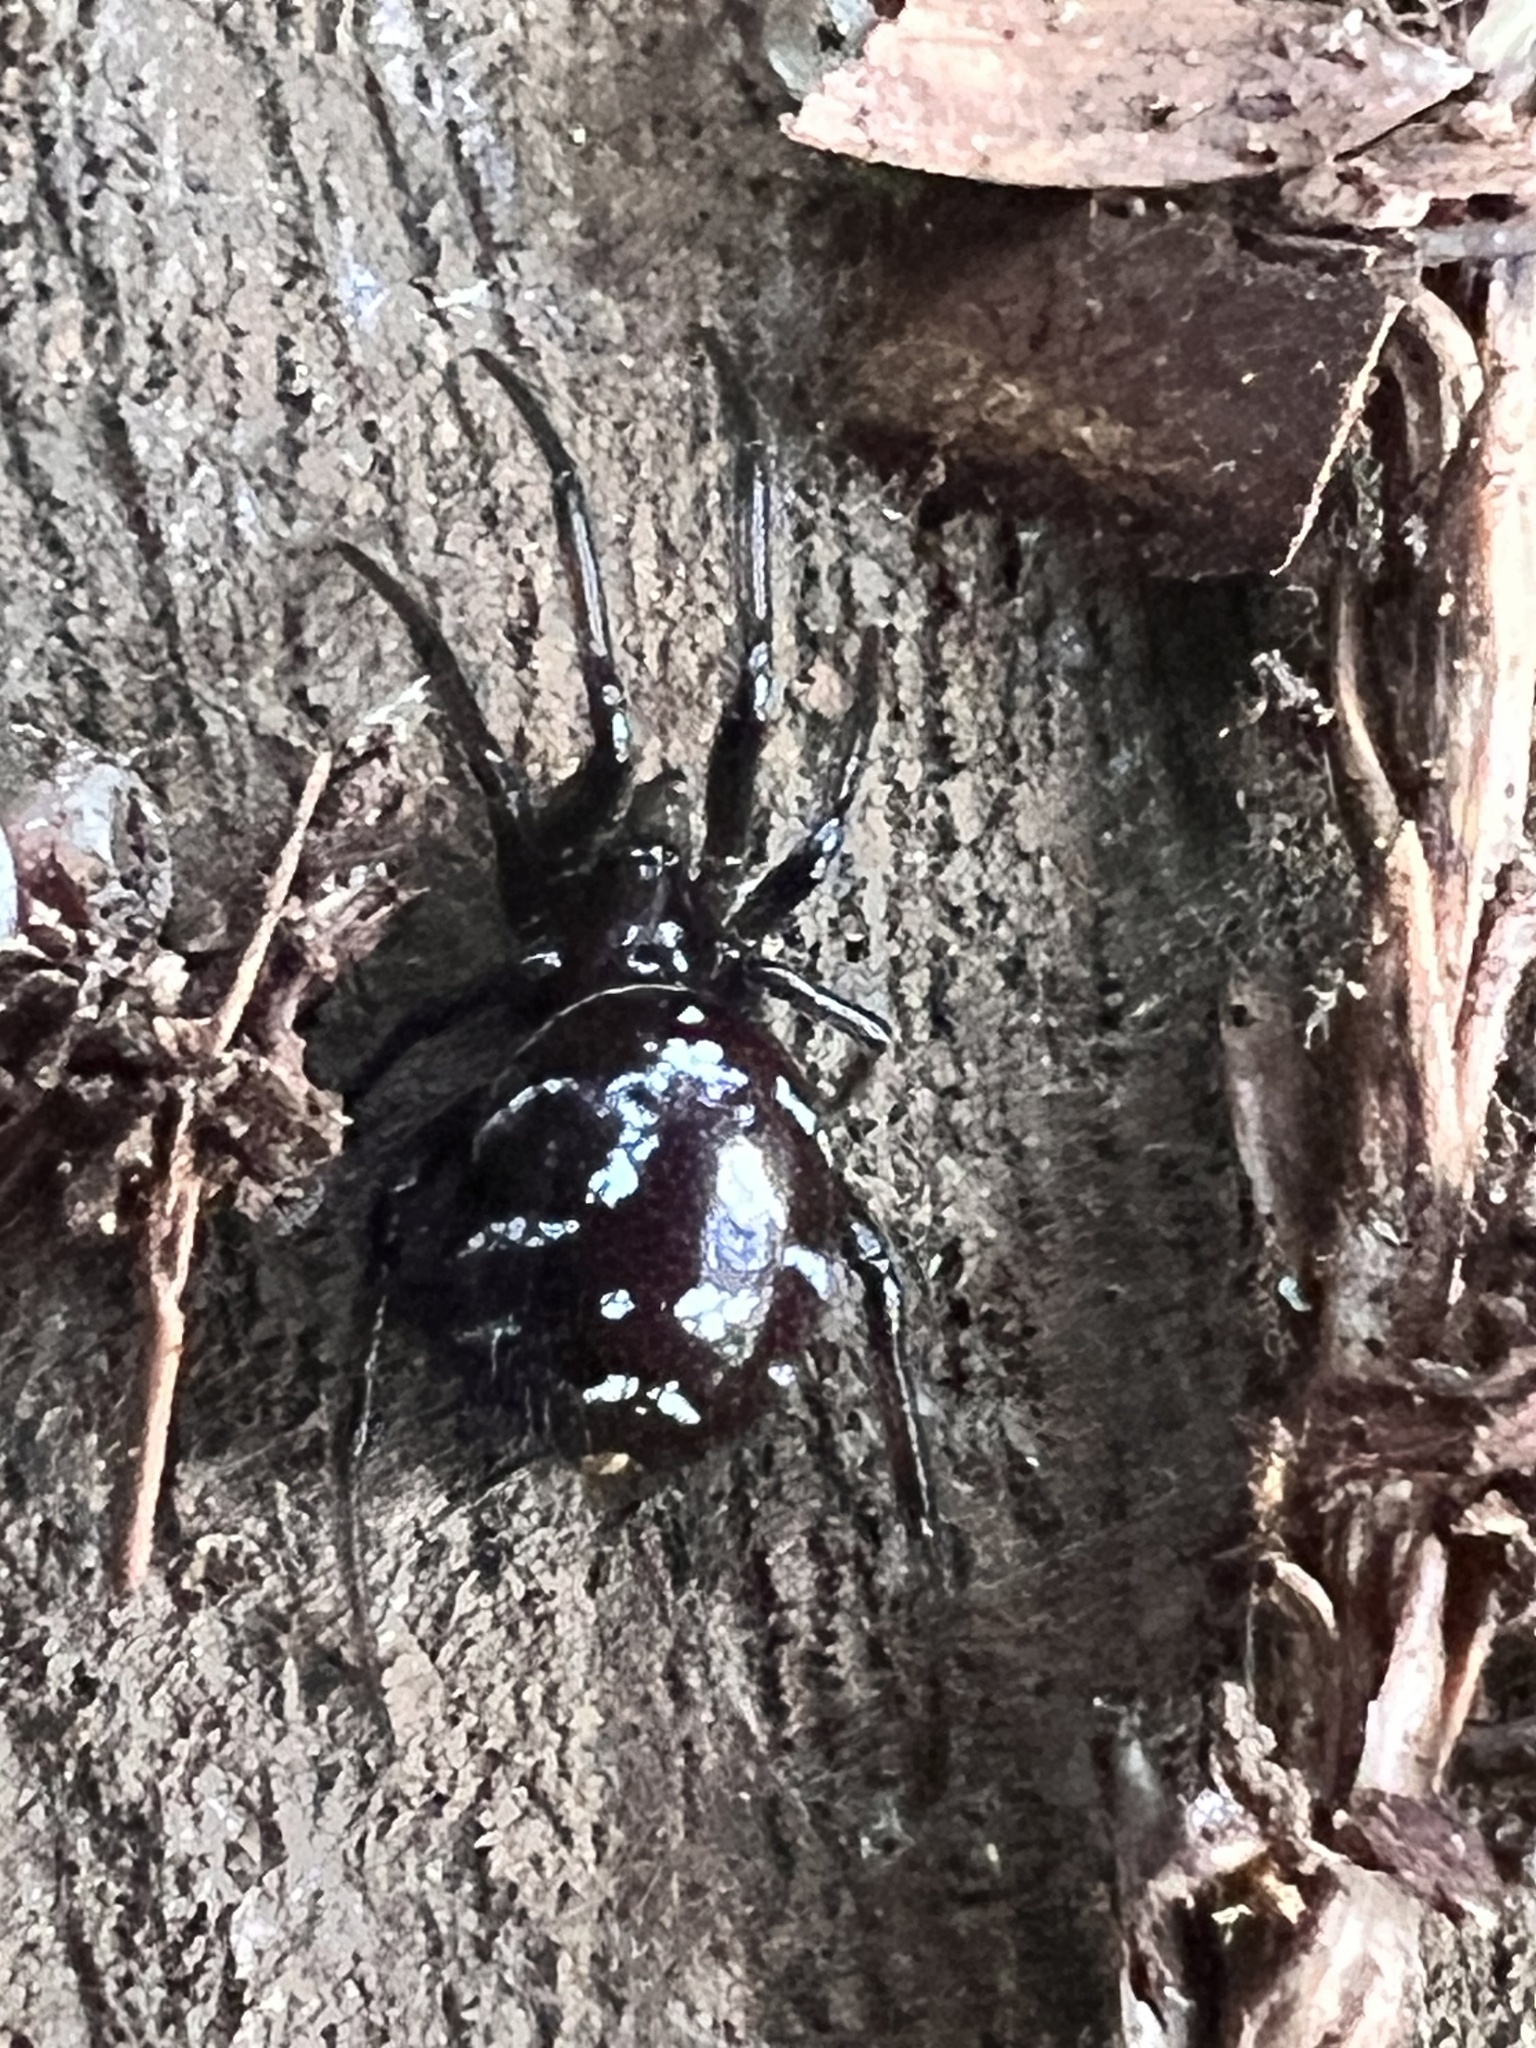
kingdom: Animalia
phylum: Arthropoda
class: Arachnida
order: Araneae
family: Theridiidae
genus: Steatoda
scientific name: Steatoda capensis
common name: Cobweb weaver
